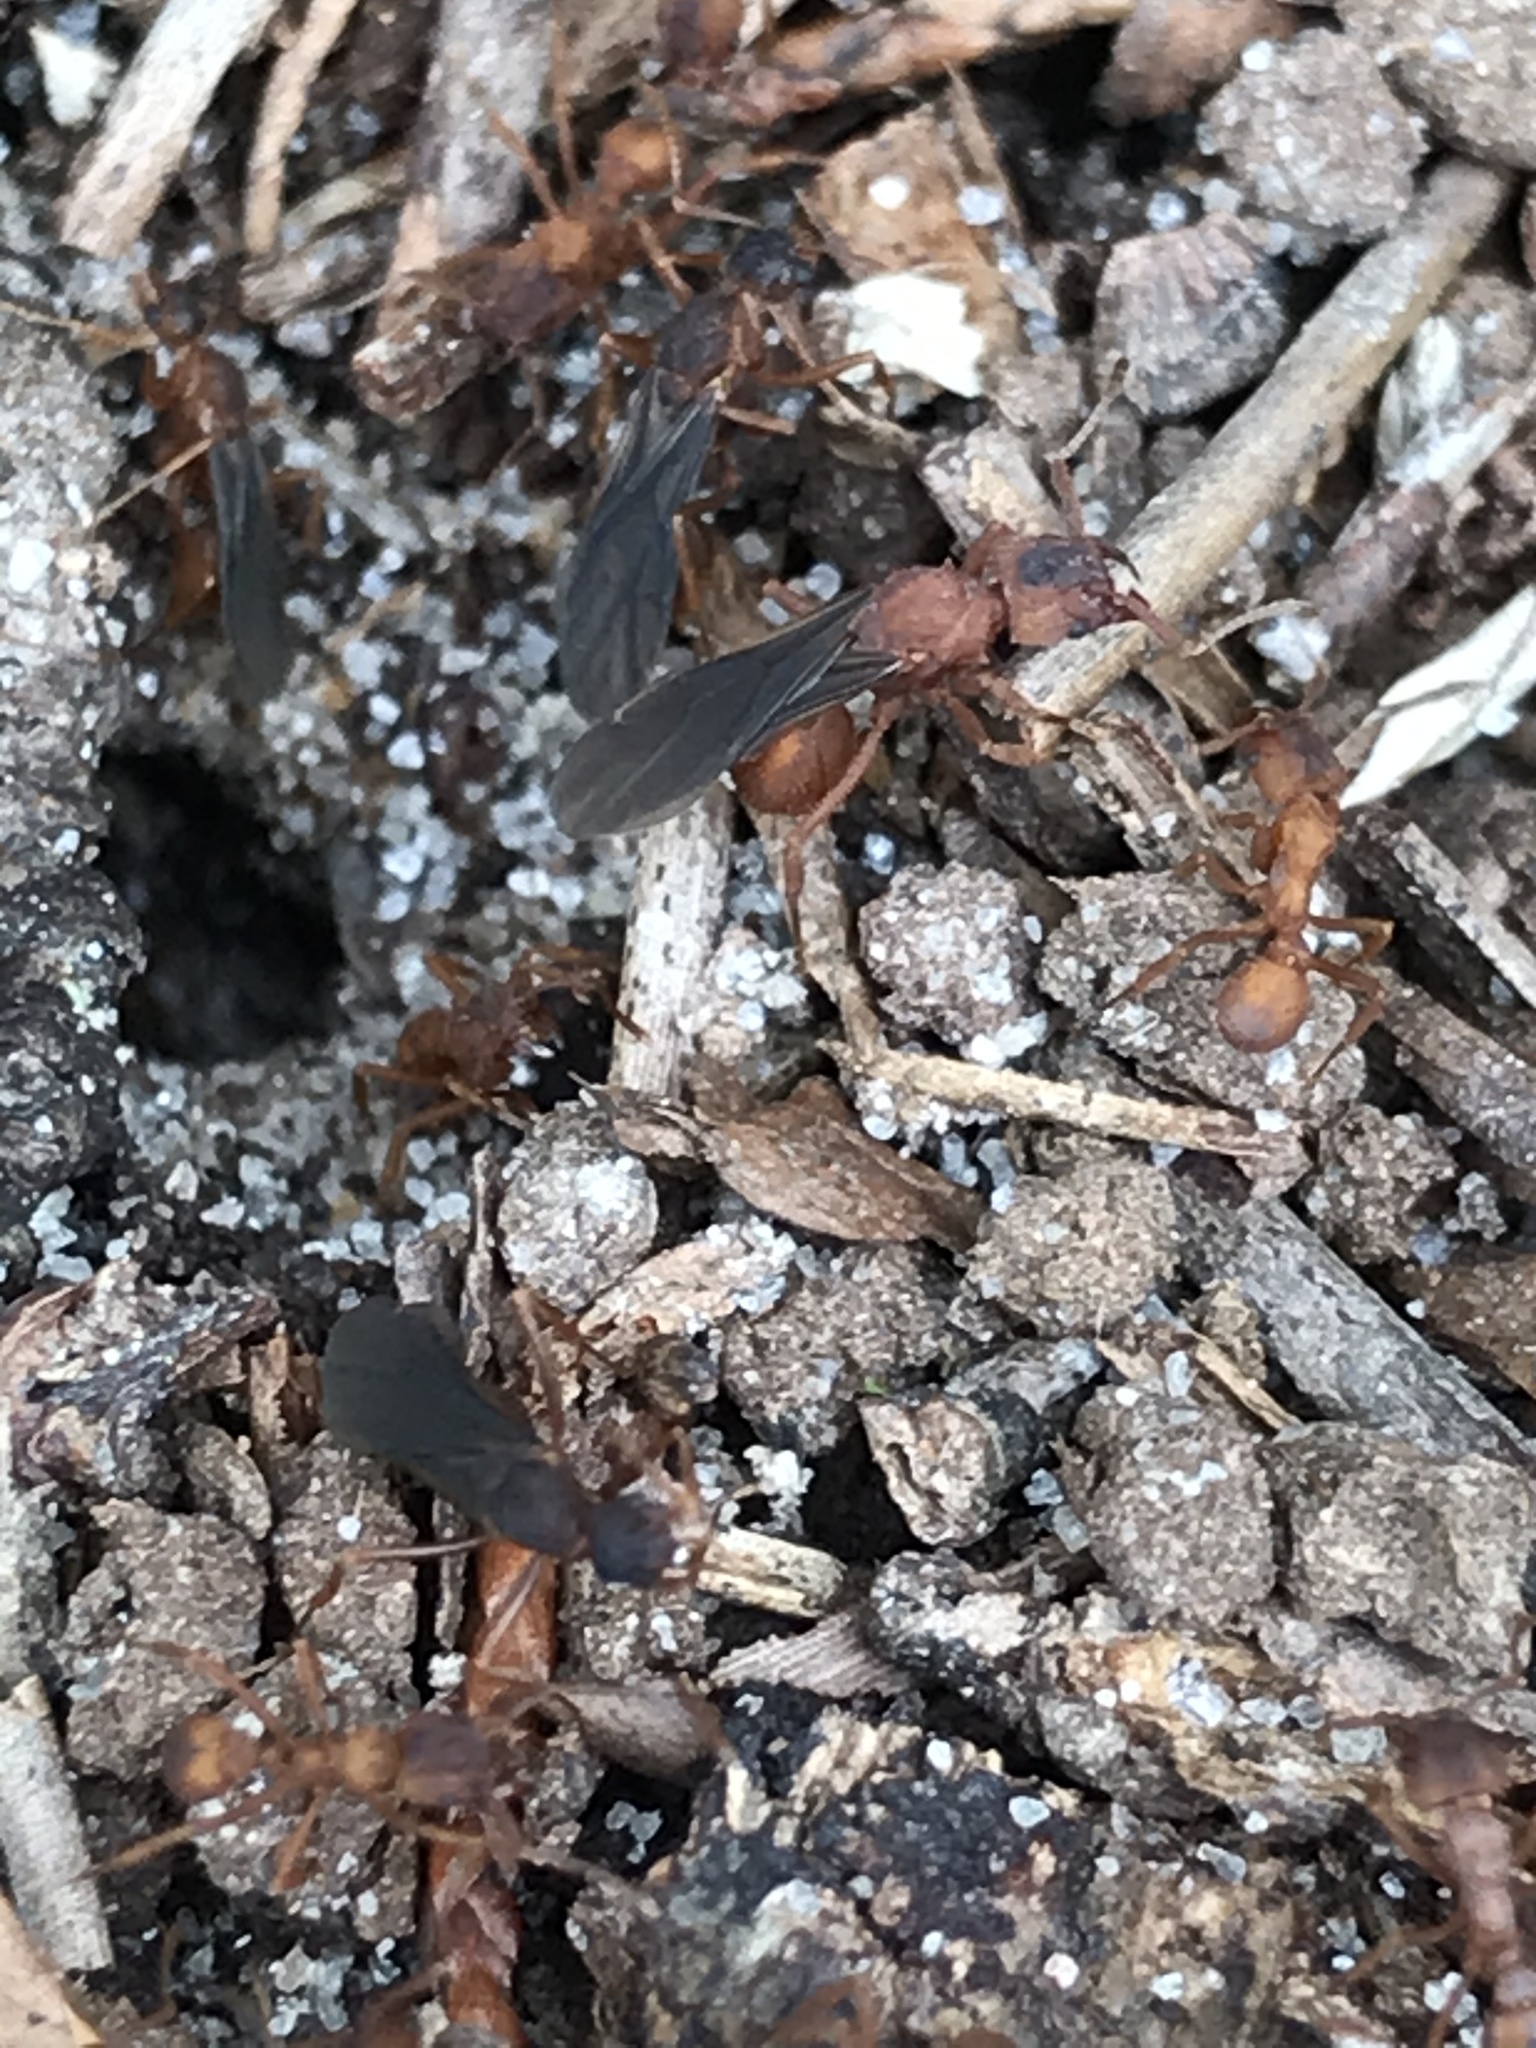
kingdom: Animalia
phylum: Arthropoda
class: Insecta
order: Hymenoptera
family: Formicidae
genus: Trachymyrmex
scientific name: Trachymyrmex septentrionalis
